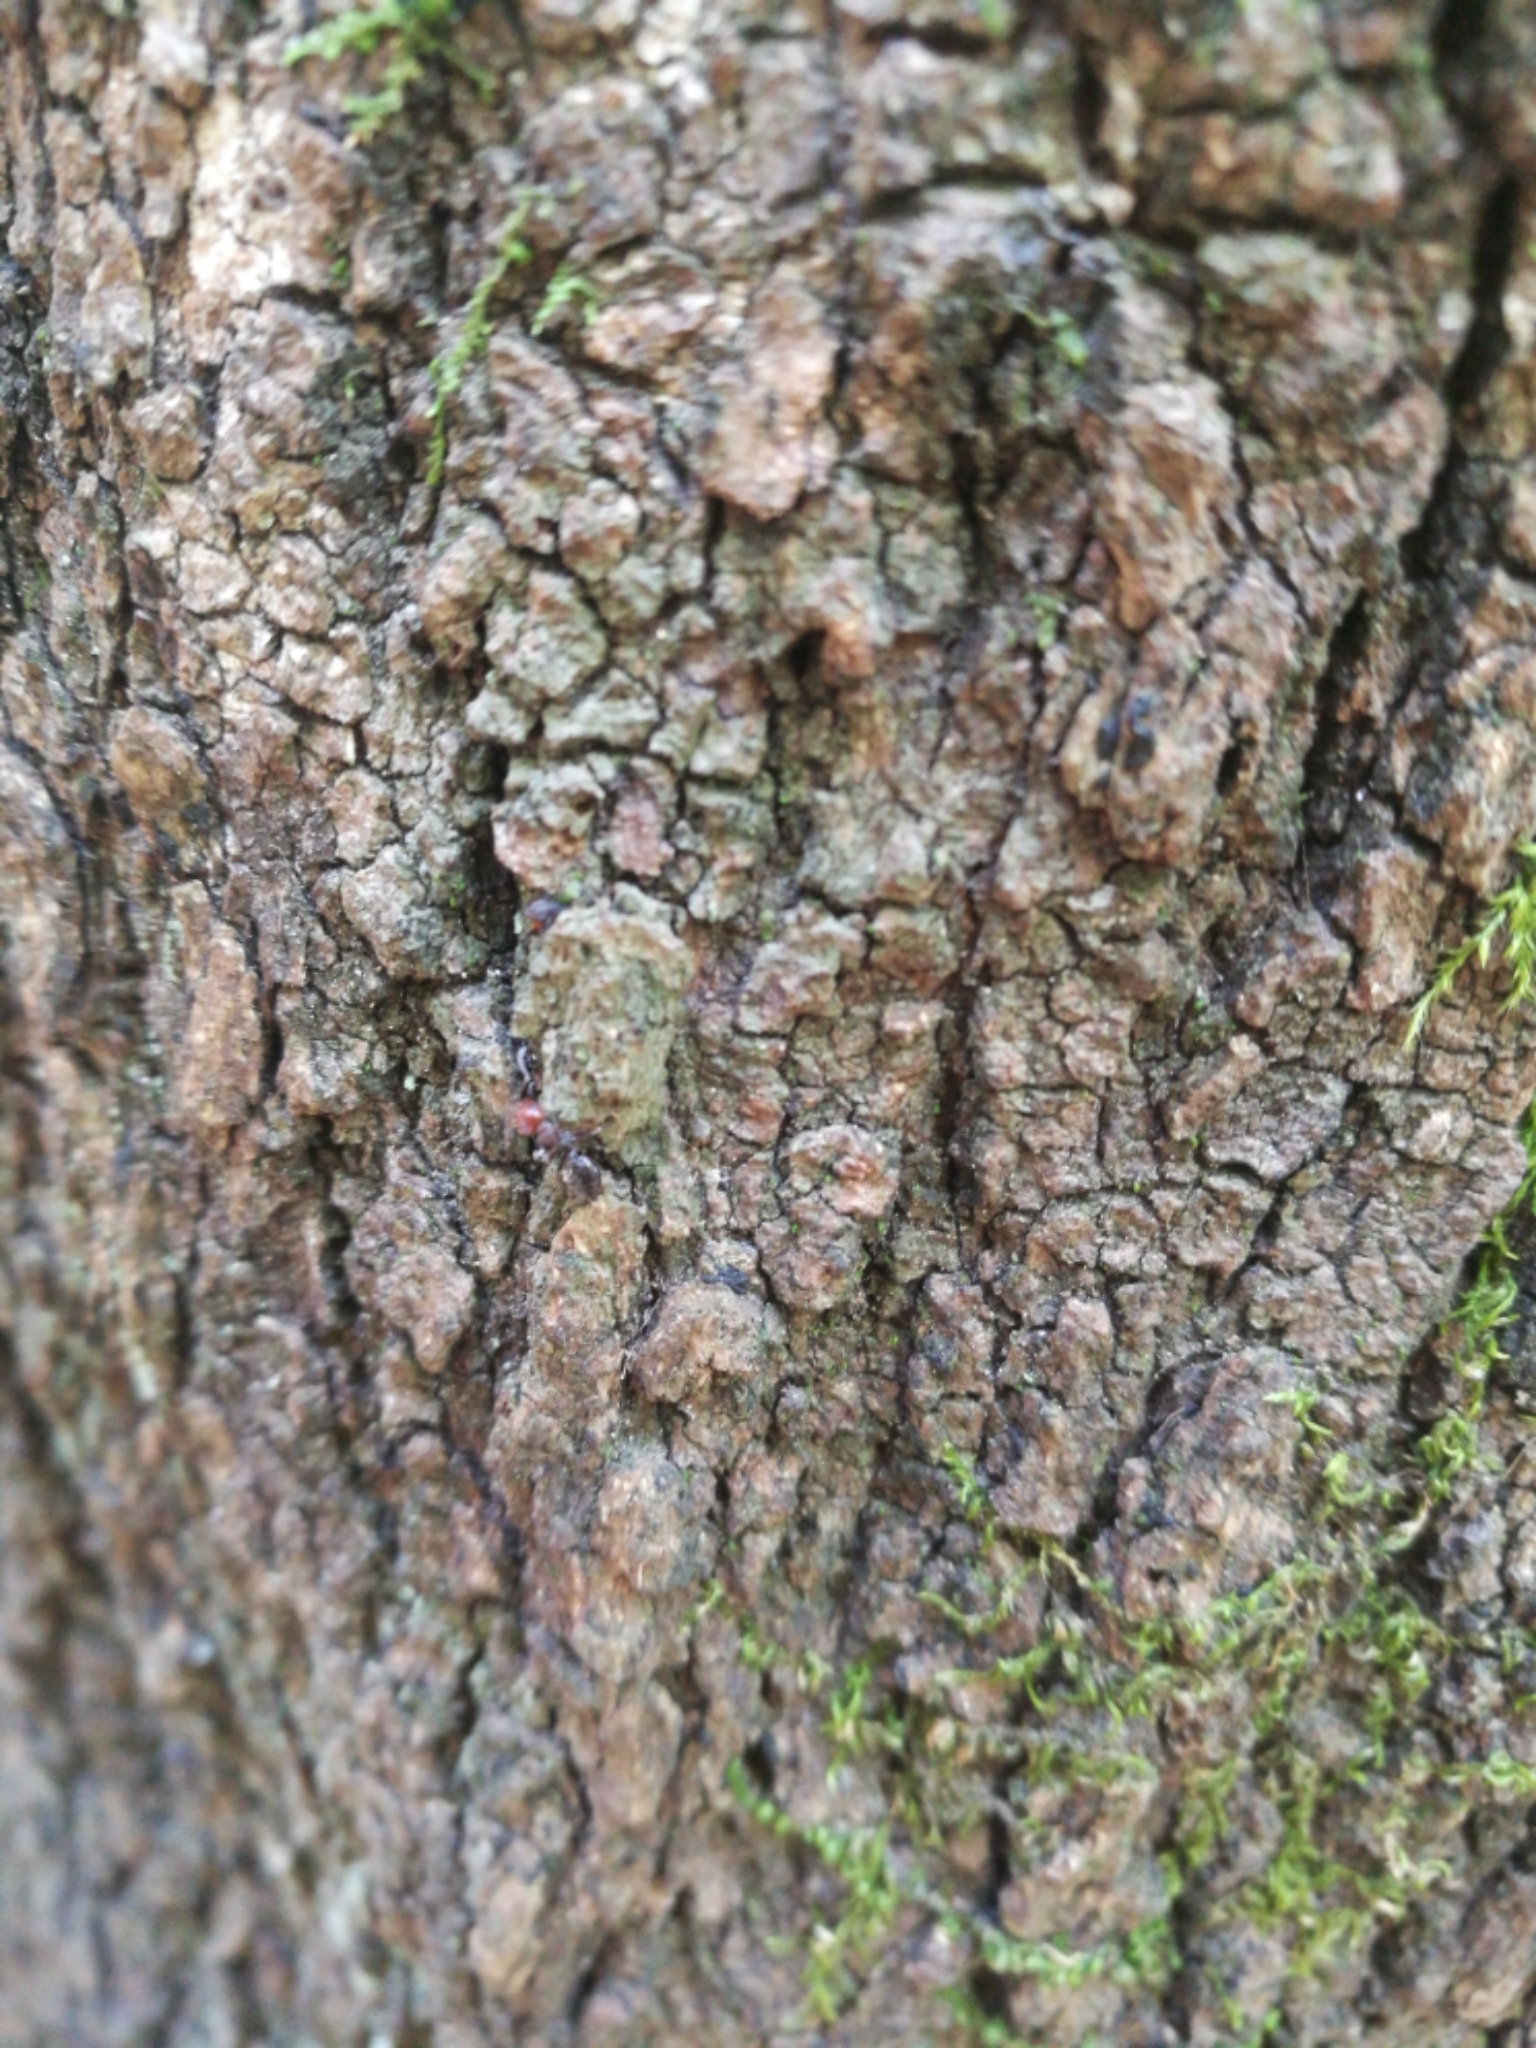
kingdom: Animalia
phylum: Arthropoda
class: Insecta
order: Hymenoptera
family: Formicidae
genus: Crematogaster
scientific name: Crematogaster scutellaris
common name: Fourmi du liège
